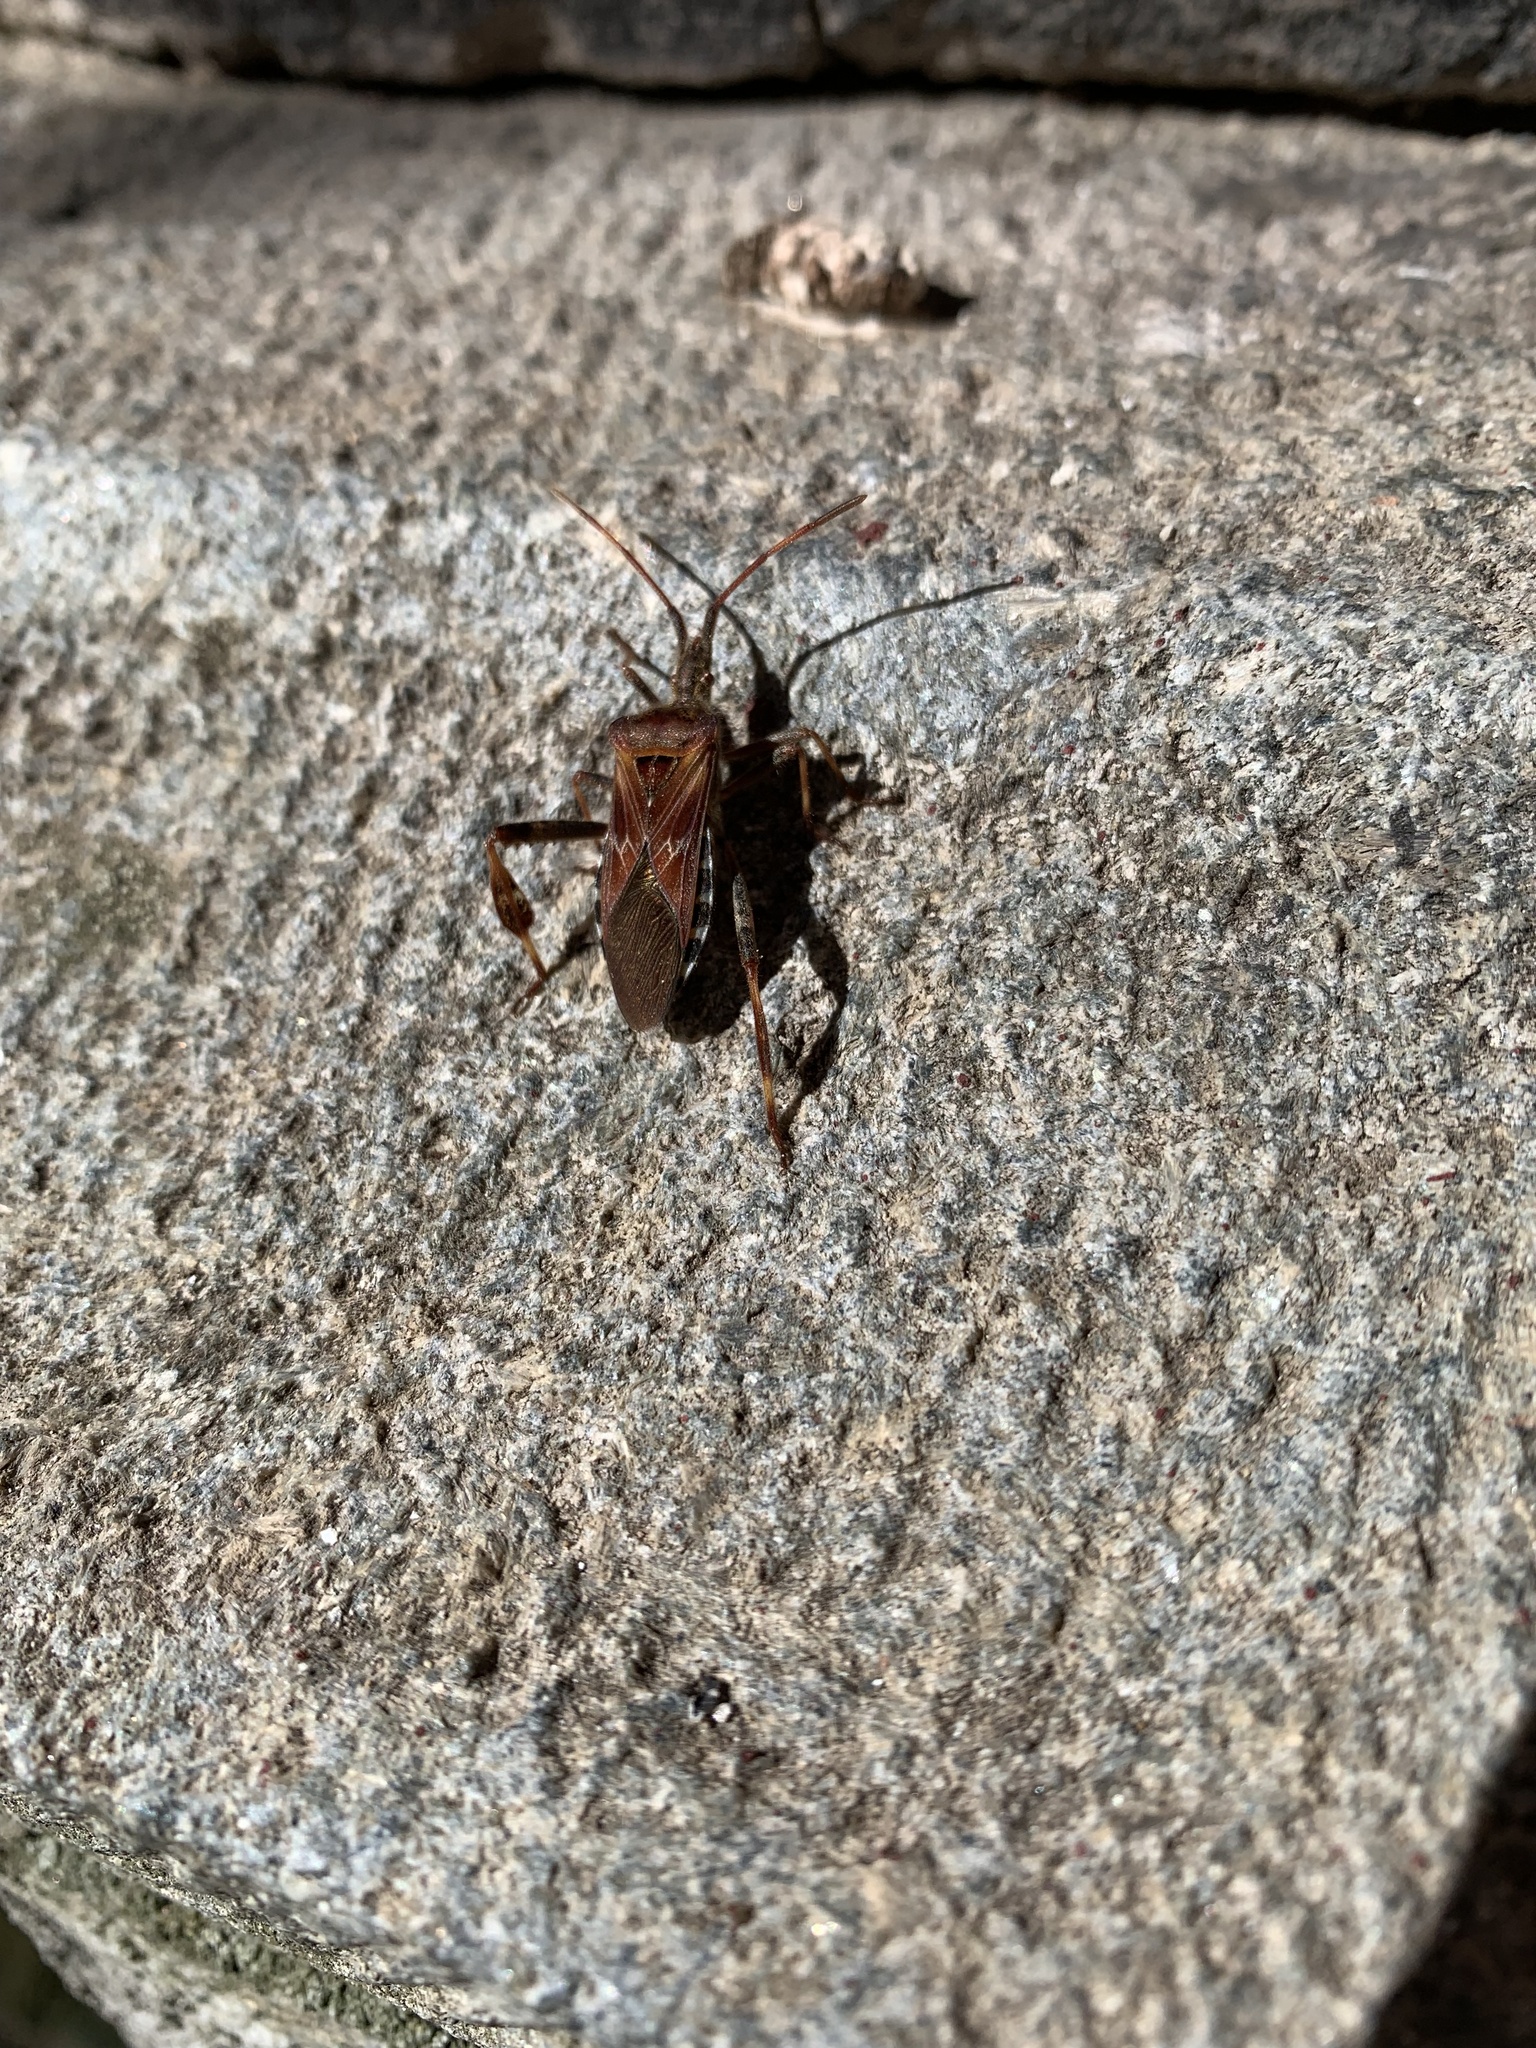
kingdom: Animalia
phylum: Arthropoda
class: Insecta
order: Hemiptera
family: Coreidae
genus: Leptoglossus
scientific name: Leptoglossus occidentalis
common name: Western conifer-seed bug
